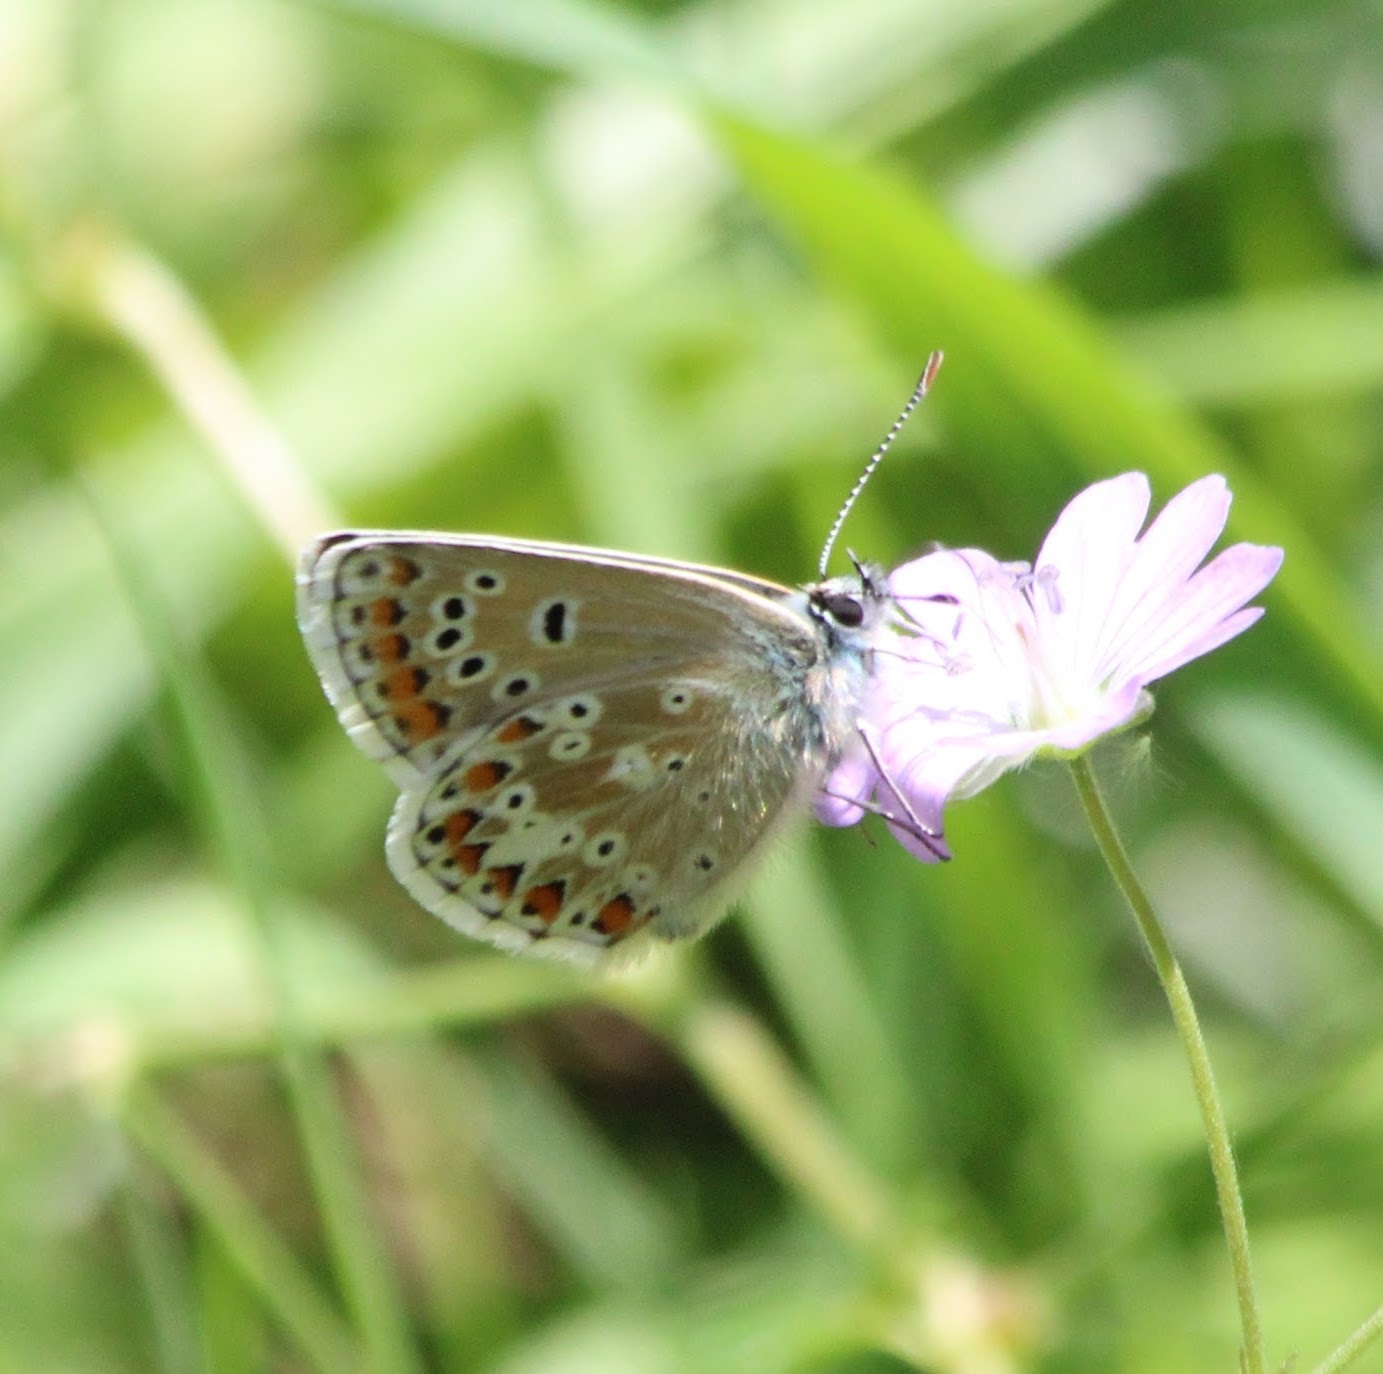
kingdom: Animalia
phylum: Arthropoda
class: Insecta
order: Lepidoptera
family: Lycaenidae
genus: Polyommatus
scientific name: Polyommatus eros
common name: Eros blue
